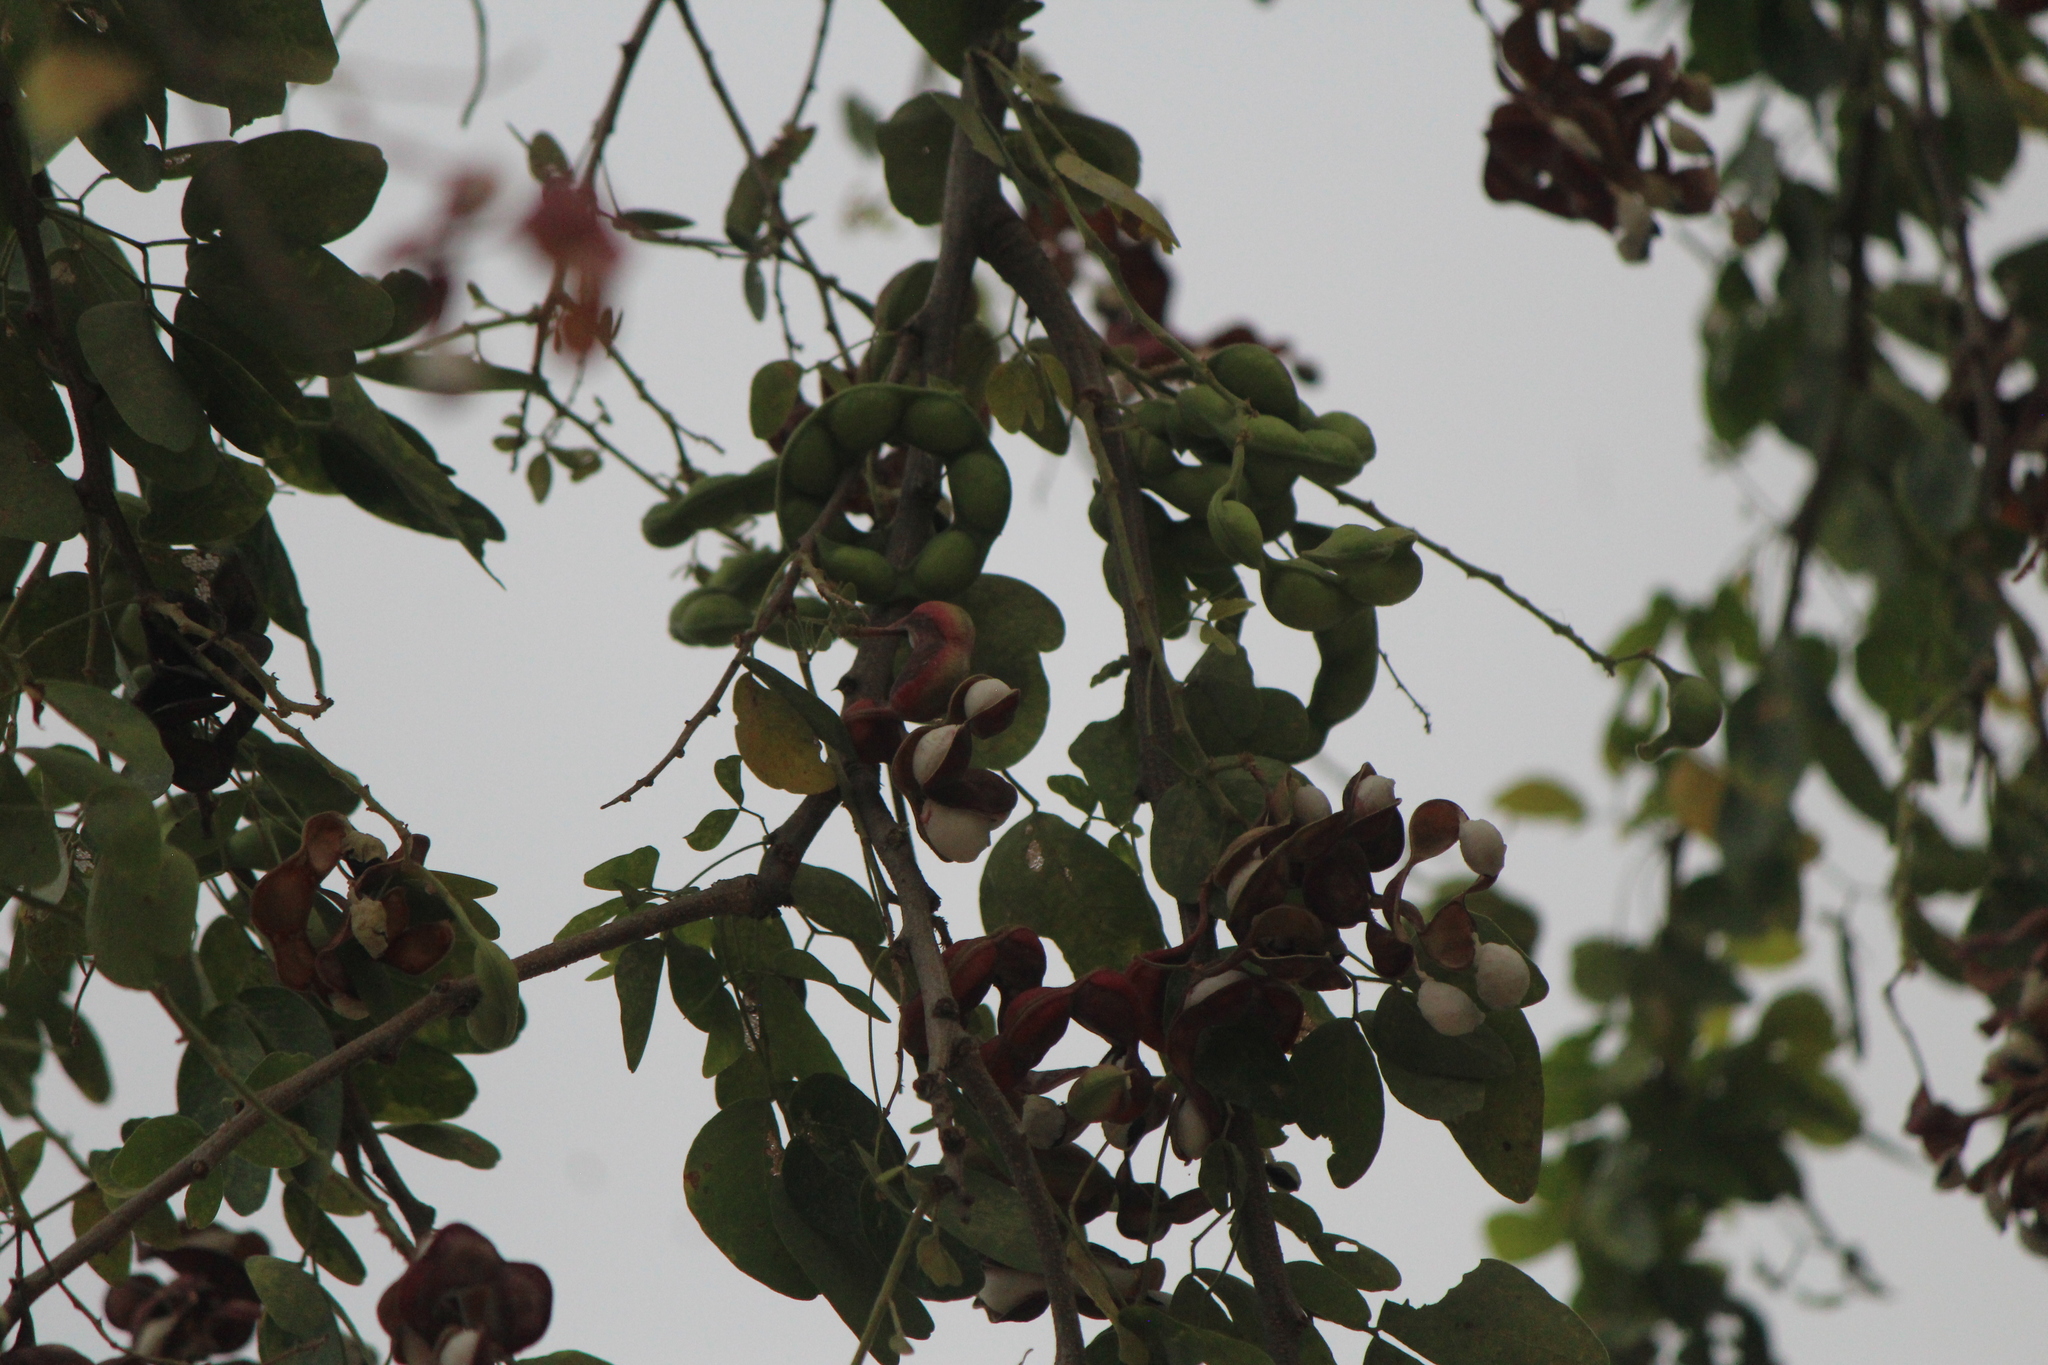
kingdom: Plantae
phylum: Tracheophyta
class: Magnoliopsida
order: Fabales
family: Fabaceae
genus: Pithecellobium
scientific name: Pithecellobium dulce
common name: Monkeypod
